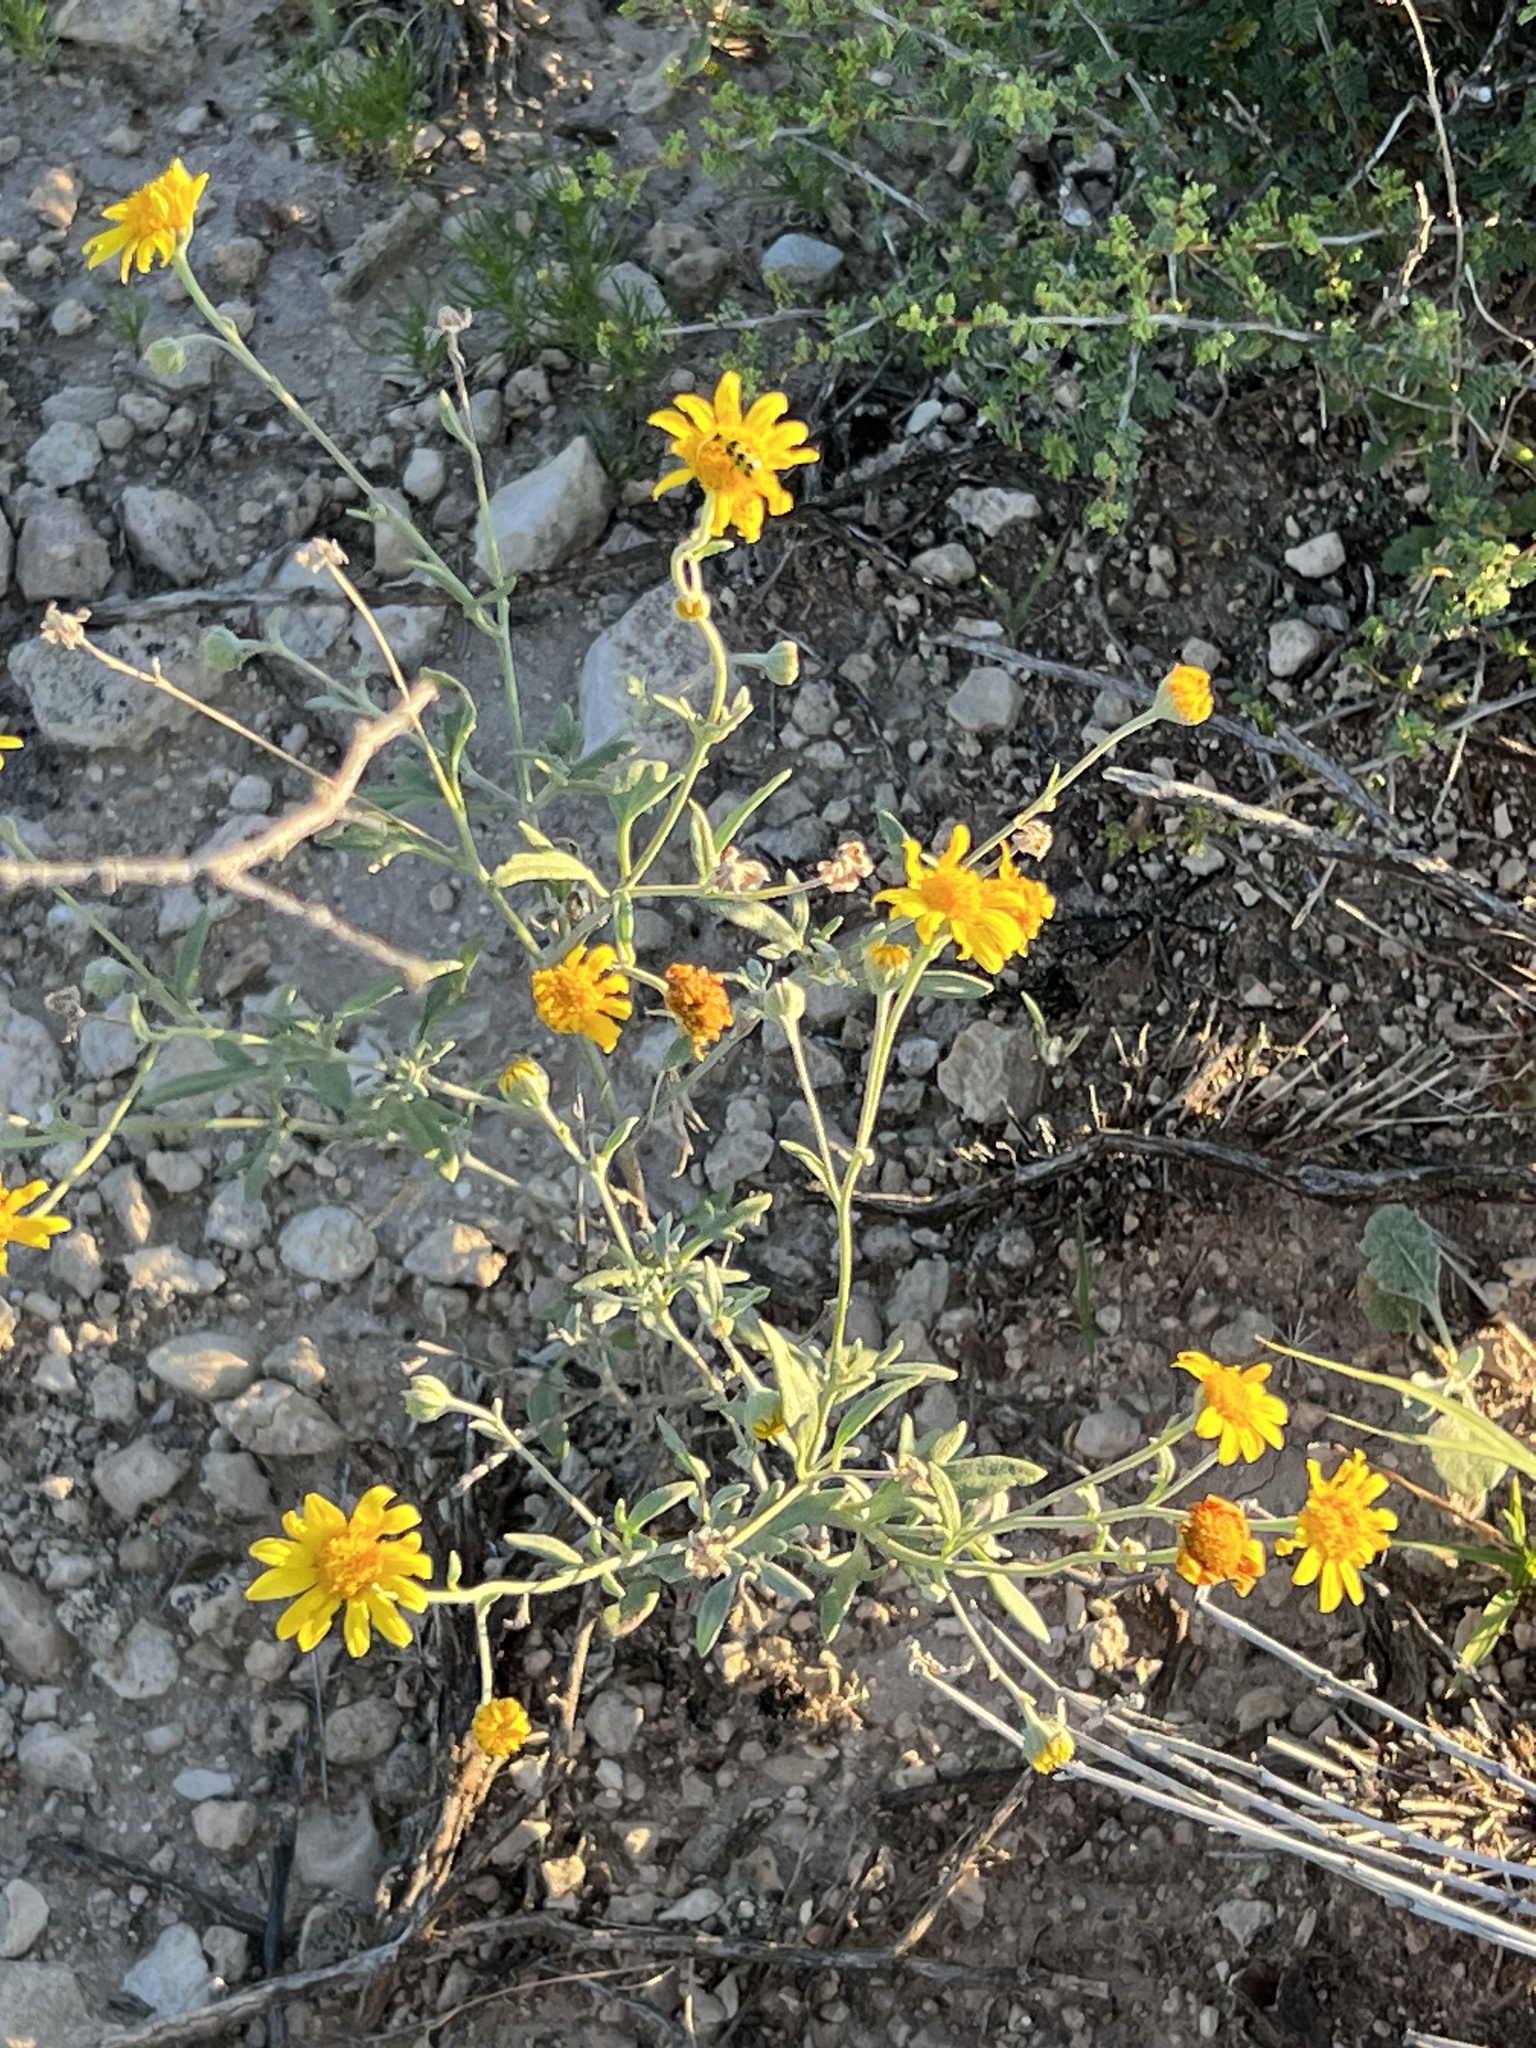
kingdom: Plantae
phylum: Tracheophyta
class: Magnoliopsida
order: Asterales
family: Asteraceae
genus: Verbesina
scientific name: Verbesina encelioides
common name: Golden crownbeard
